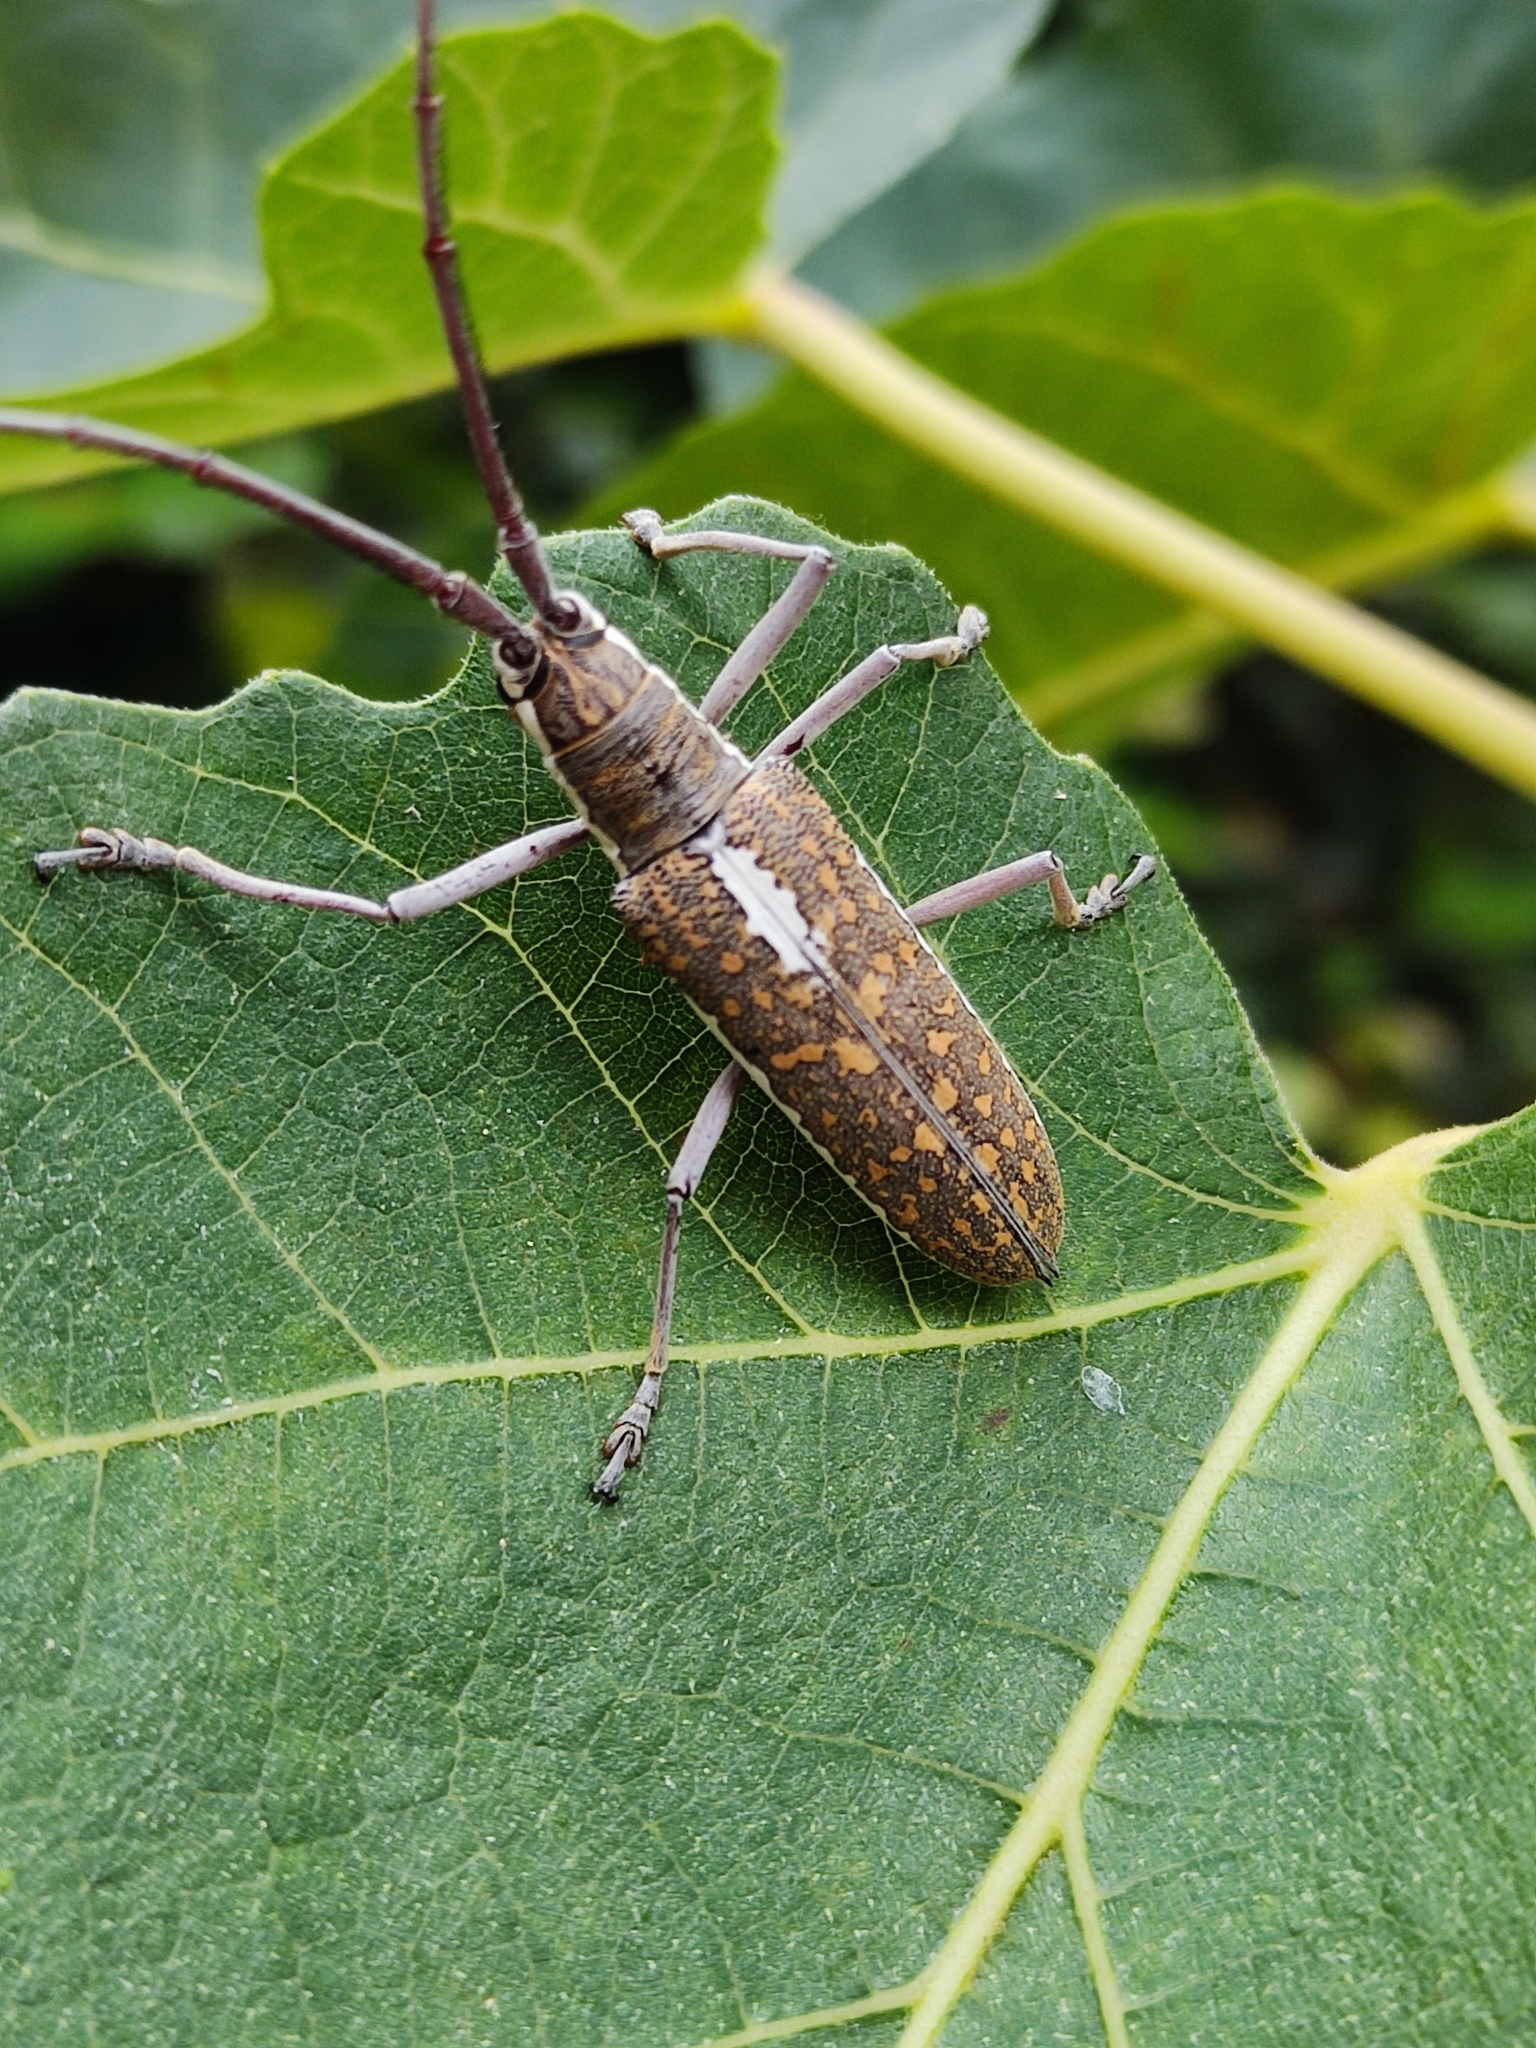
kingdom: Animalia
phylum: Arthropoda
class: Insecta
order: Coleoptera
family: Cerambycidae
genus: Neoptychodes
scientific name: Neoptychodes trilineatus
